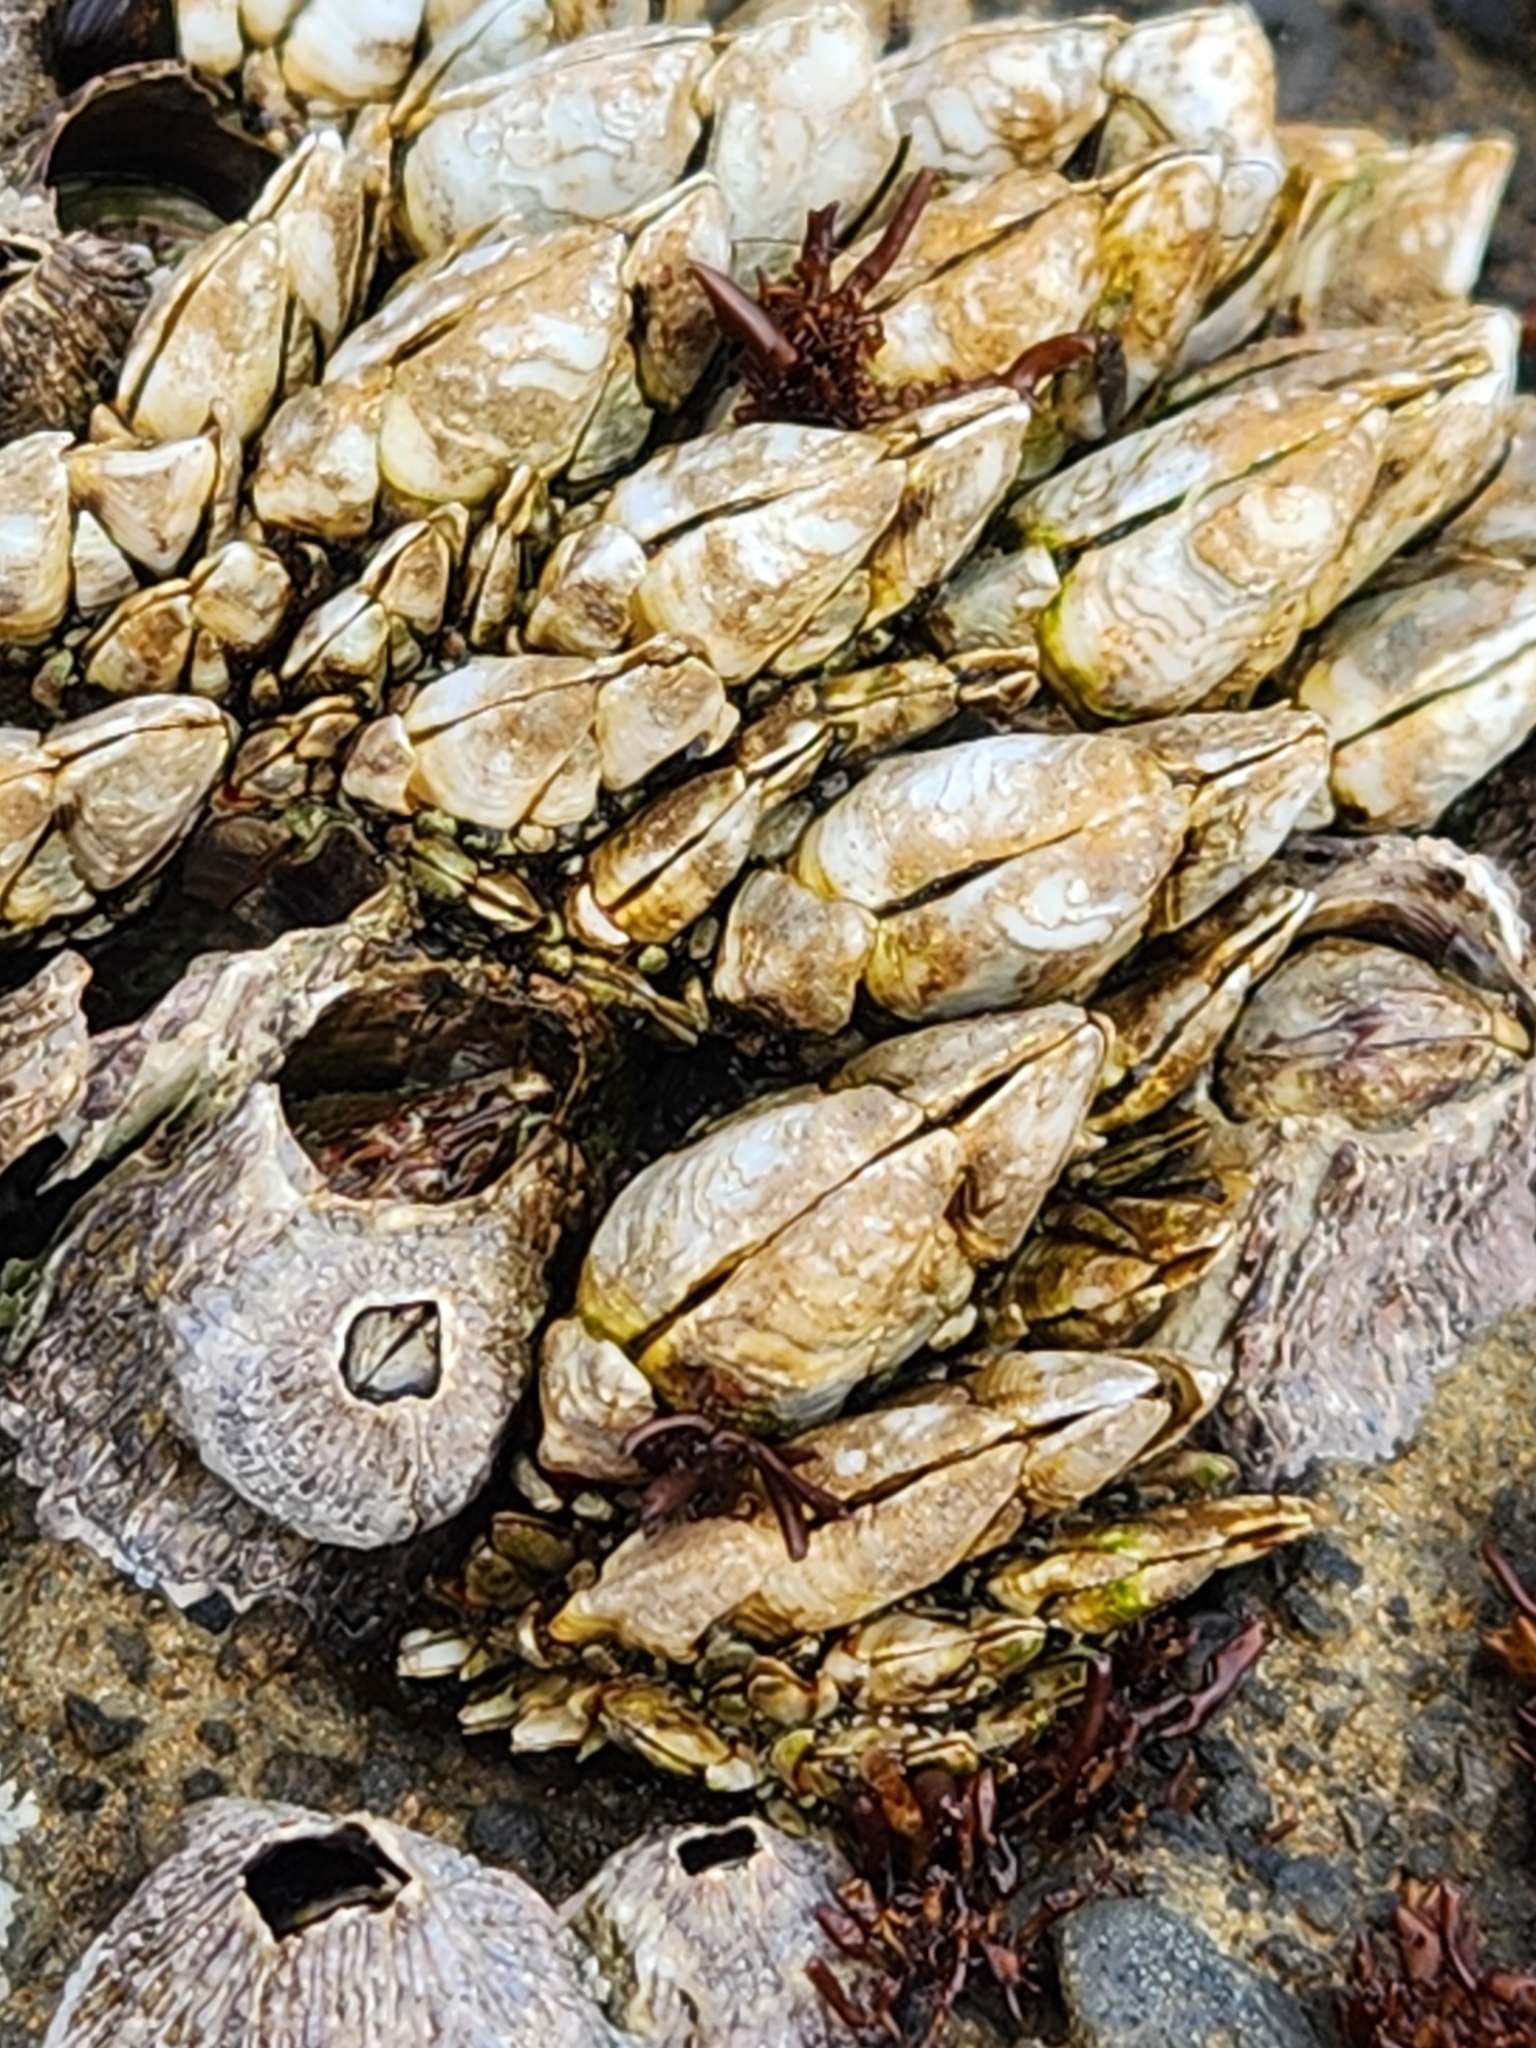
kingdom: Animalia
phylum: Arthropoda
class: Maxillopoda
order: Pedunculata
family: Pollicipedidae
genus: Capitulum
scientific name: Capitulum mitella
